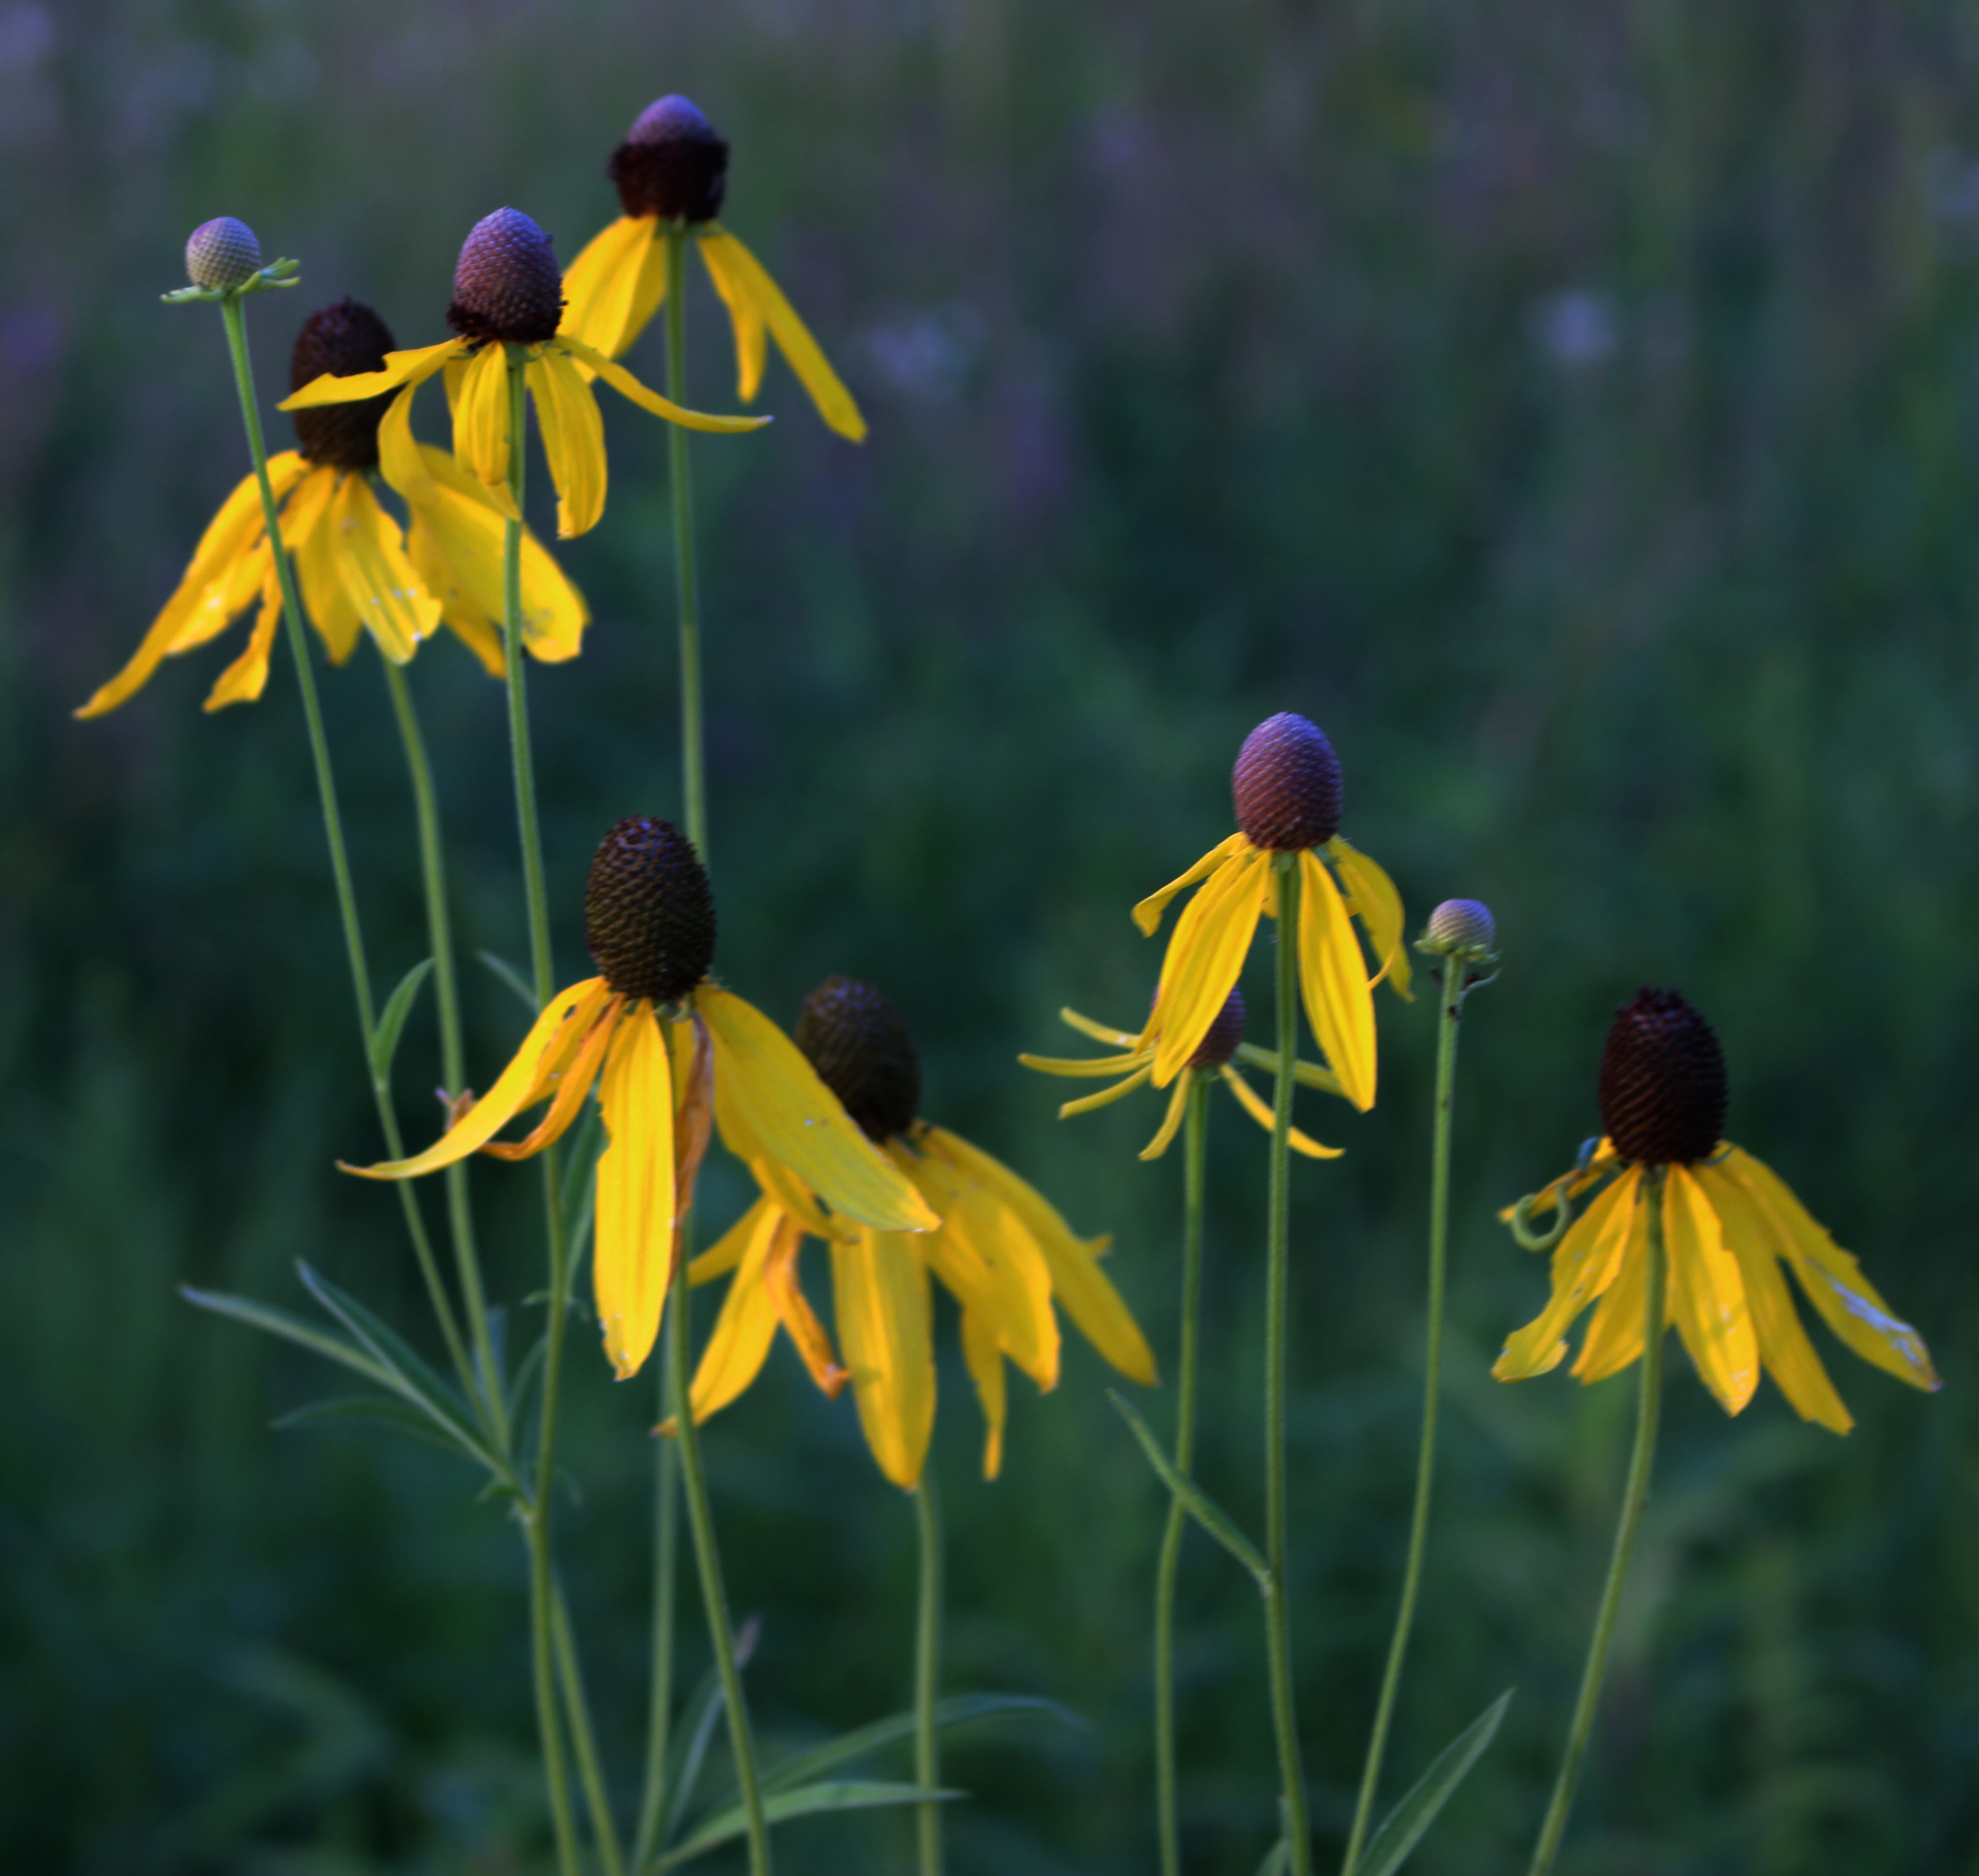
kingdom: Plantae
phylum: Tracheophyta
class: Magnoliopsida
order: Asterales
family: Asteraceae
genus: Ratibida
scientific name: Ratibida pinnata
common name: Drooping prairie-coneflower
